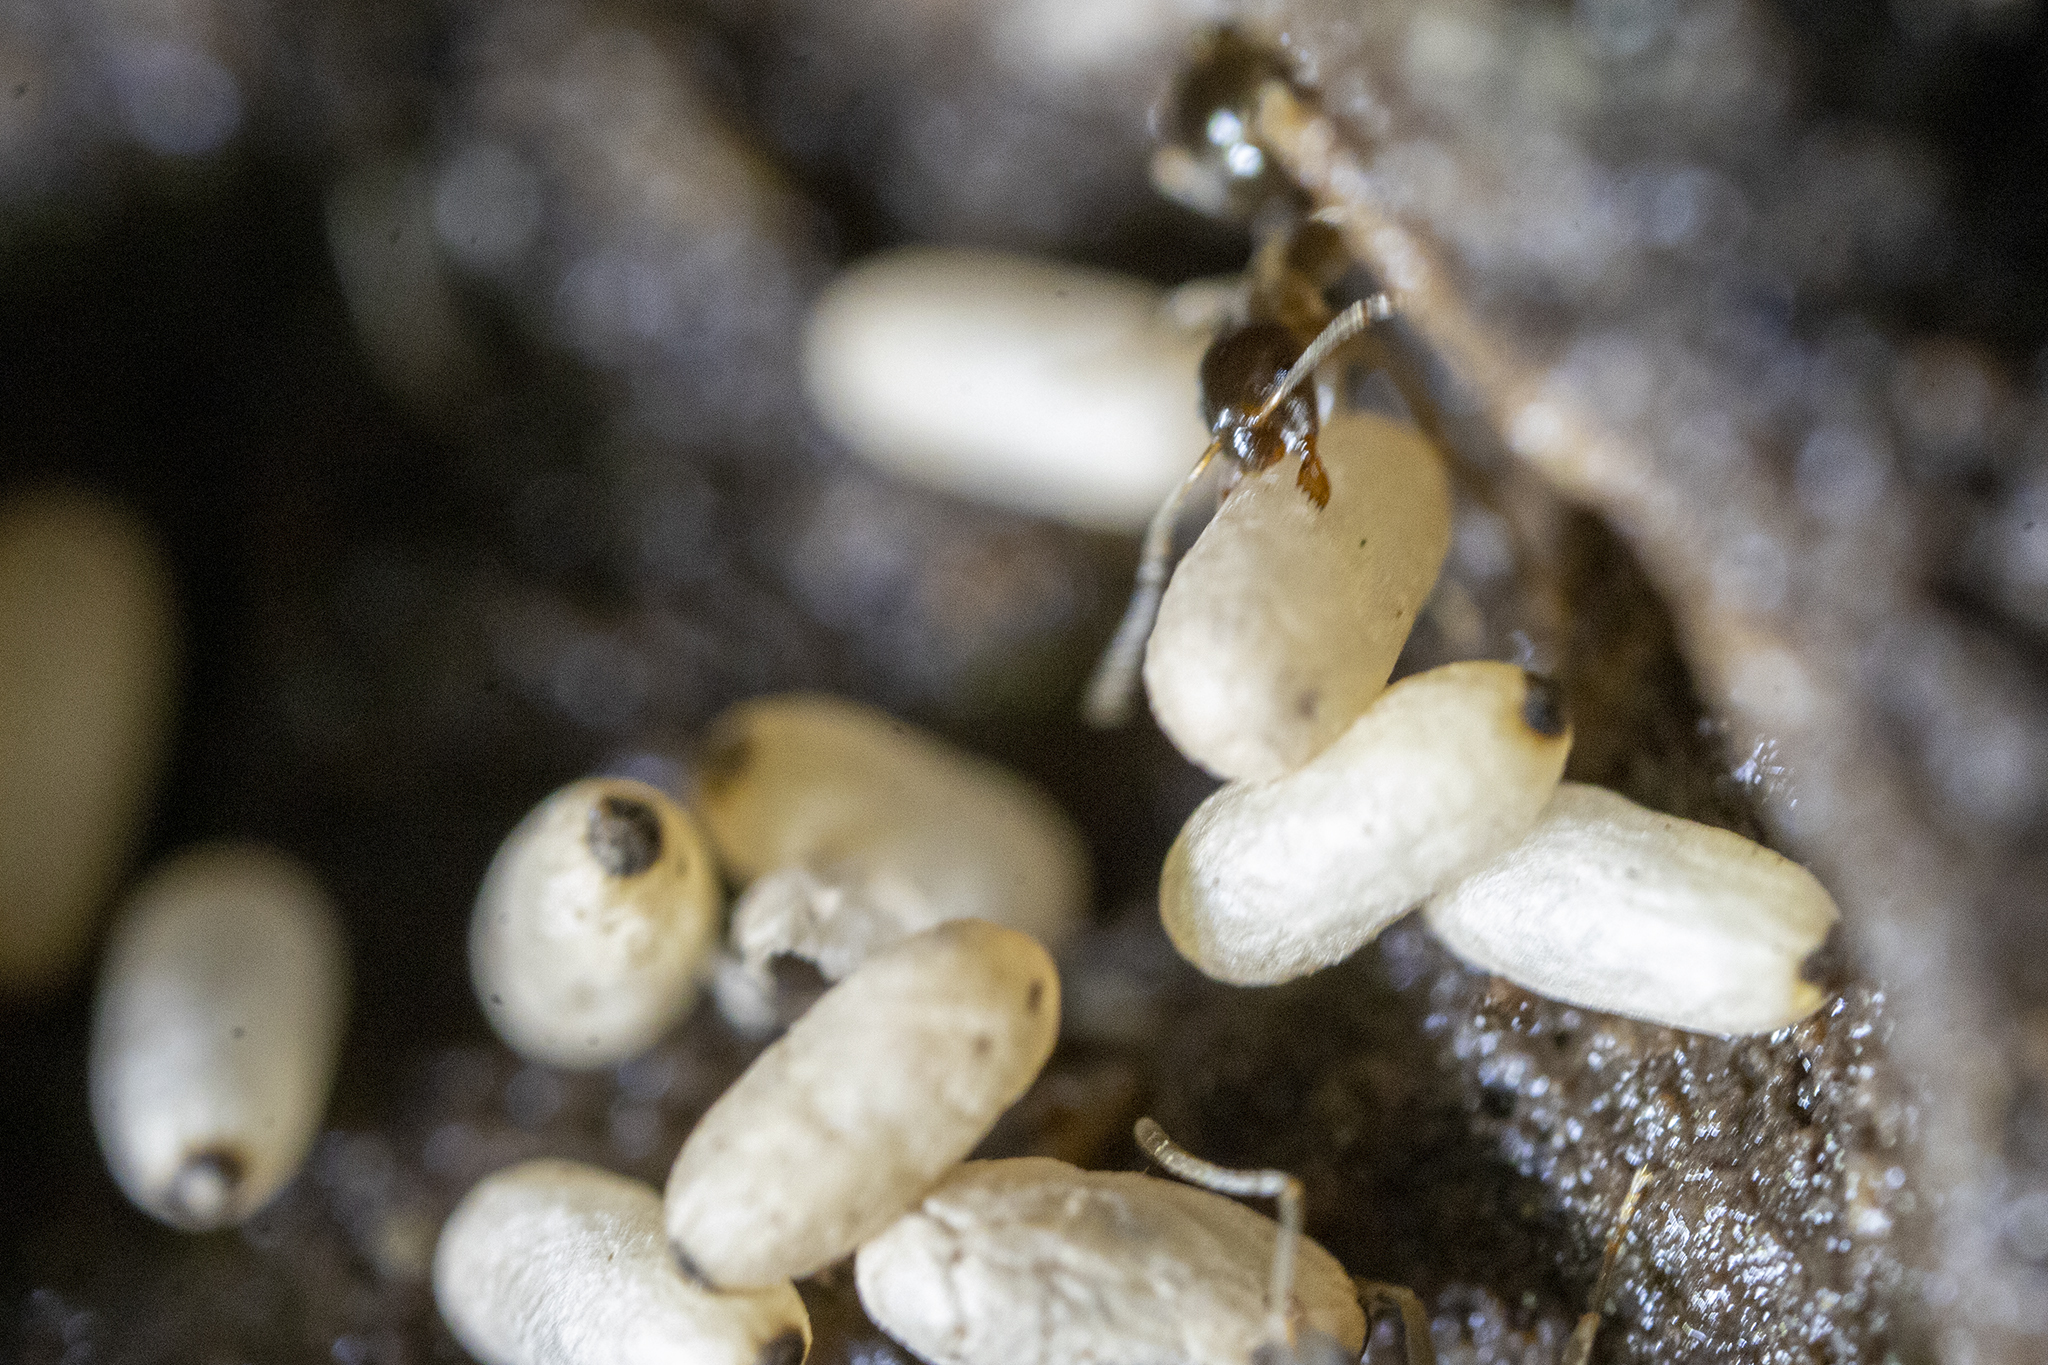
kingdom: Animalia
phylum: Arthropoda
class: Insecta
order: Hymenoptera
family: Formicidae
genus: Prolasius
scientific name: Prolasius advenus
